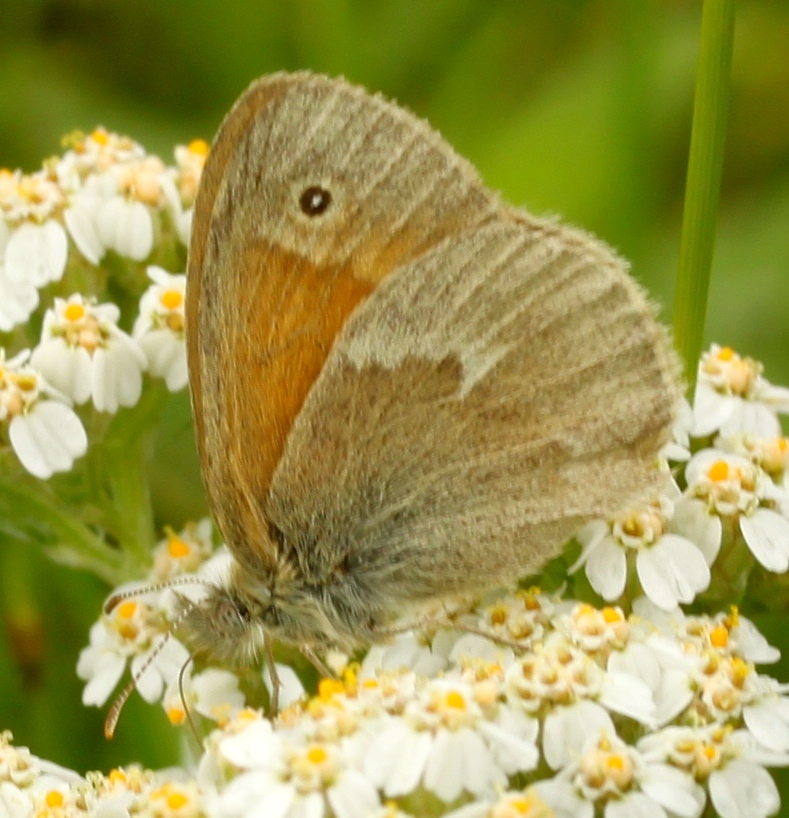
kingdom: Animalia
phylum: Arthropoda
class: Insecta
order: Lepidoptera
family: Nymphalidae
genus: Coenonympha
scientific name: Coenonympha california
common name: Common ringlet
